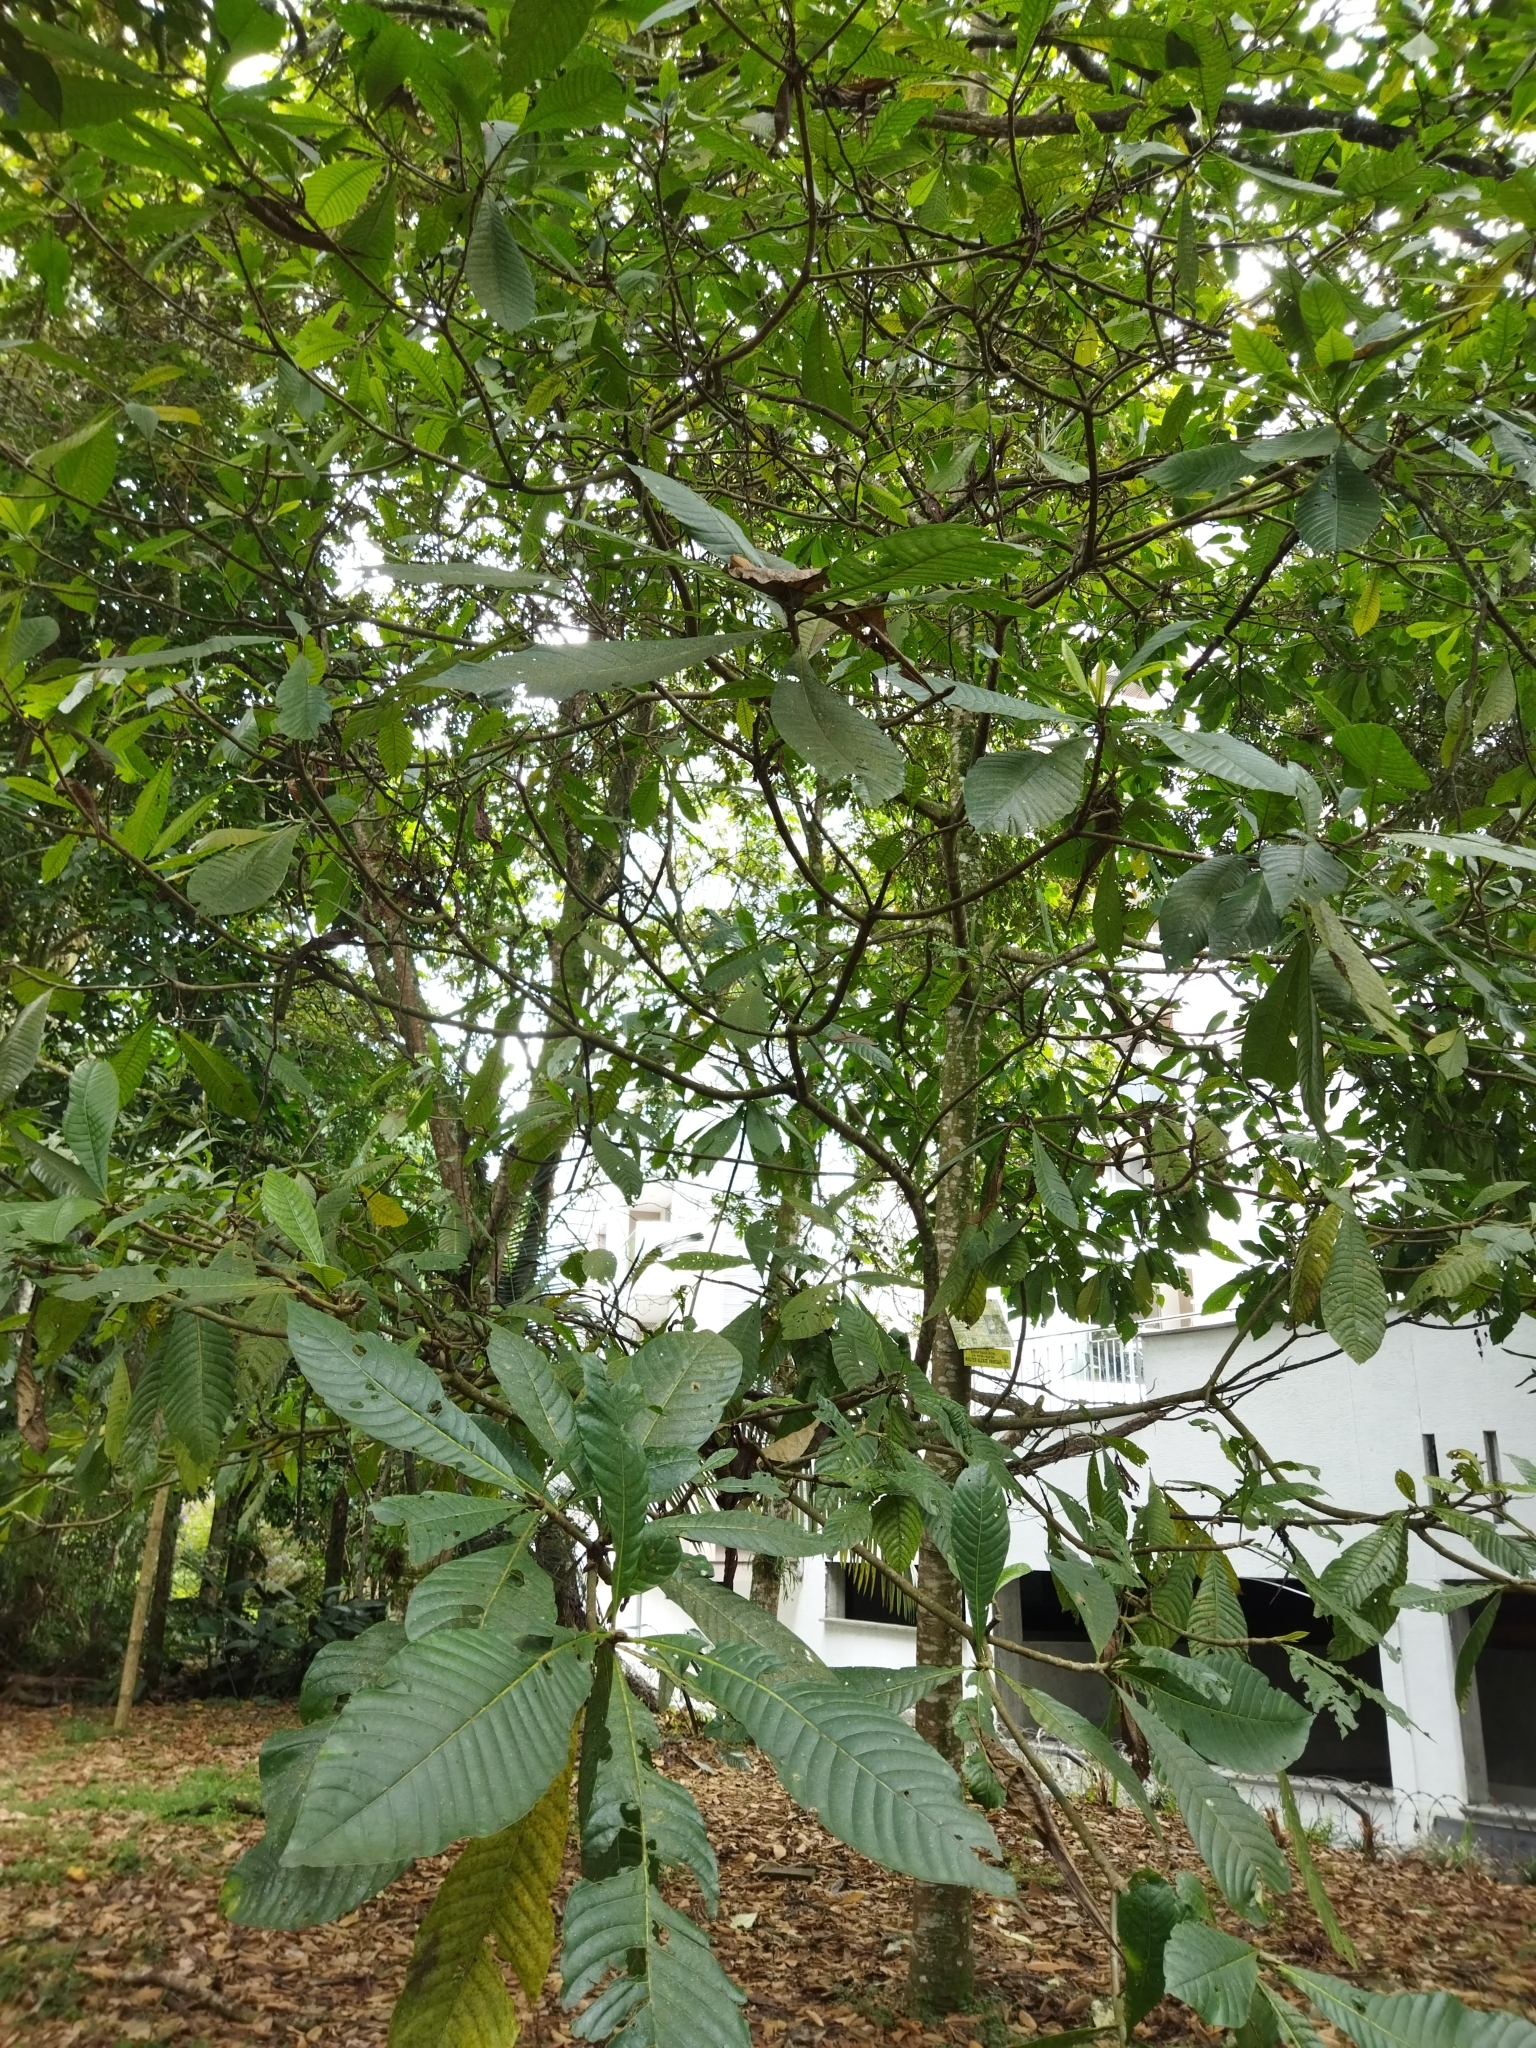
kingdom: Plantae
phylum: Tracheophyta
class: Magnoliopsida
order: Gentianales
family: Rubiaceae
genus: Genipa
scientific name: Genipa americana
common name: Genipap
